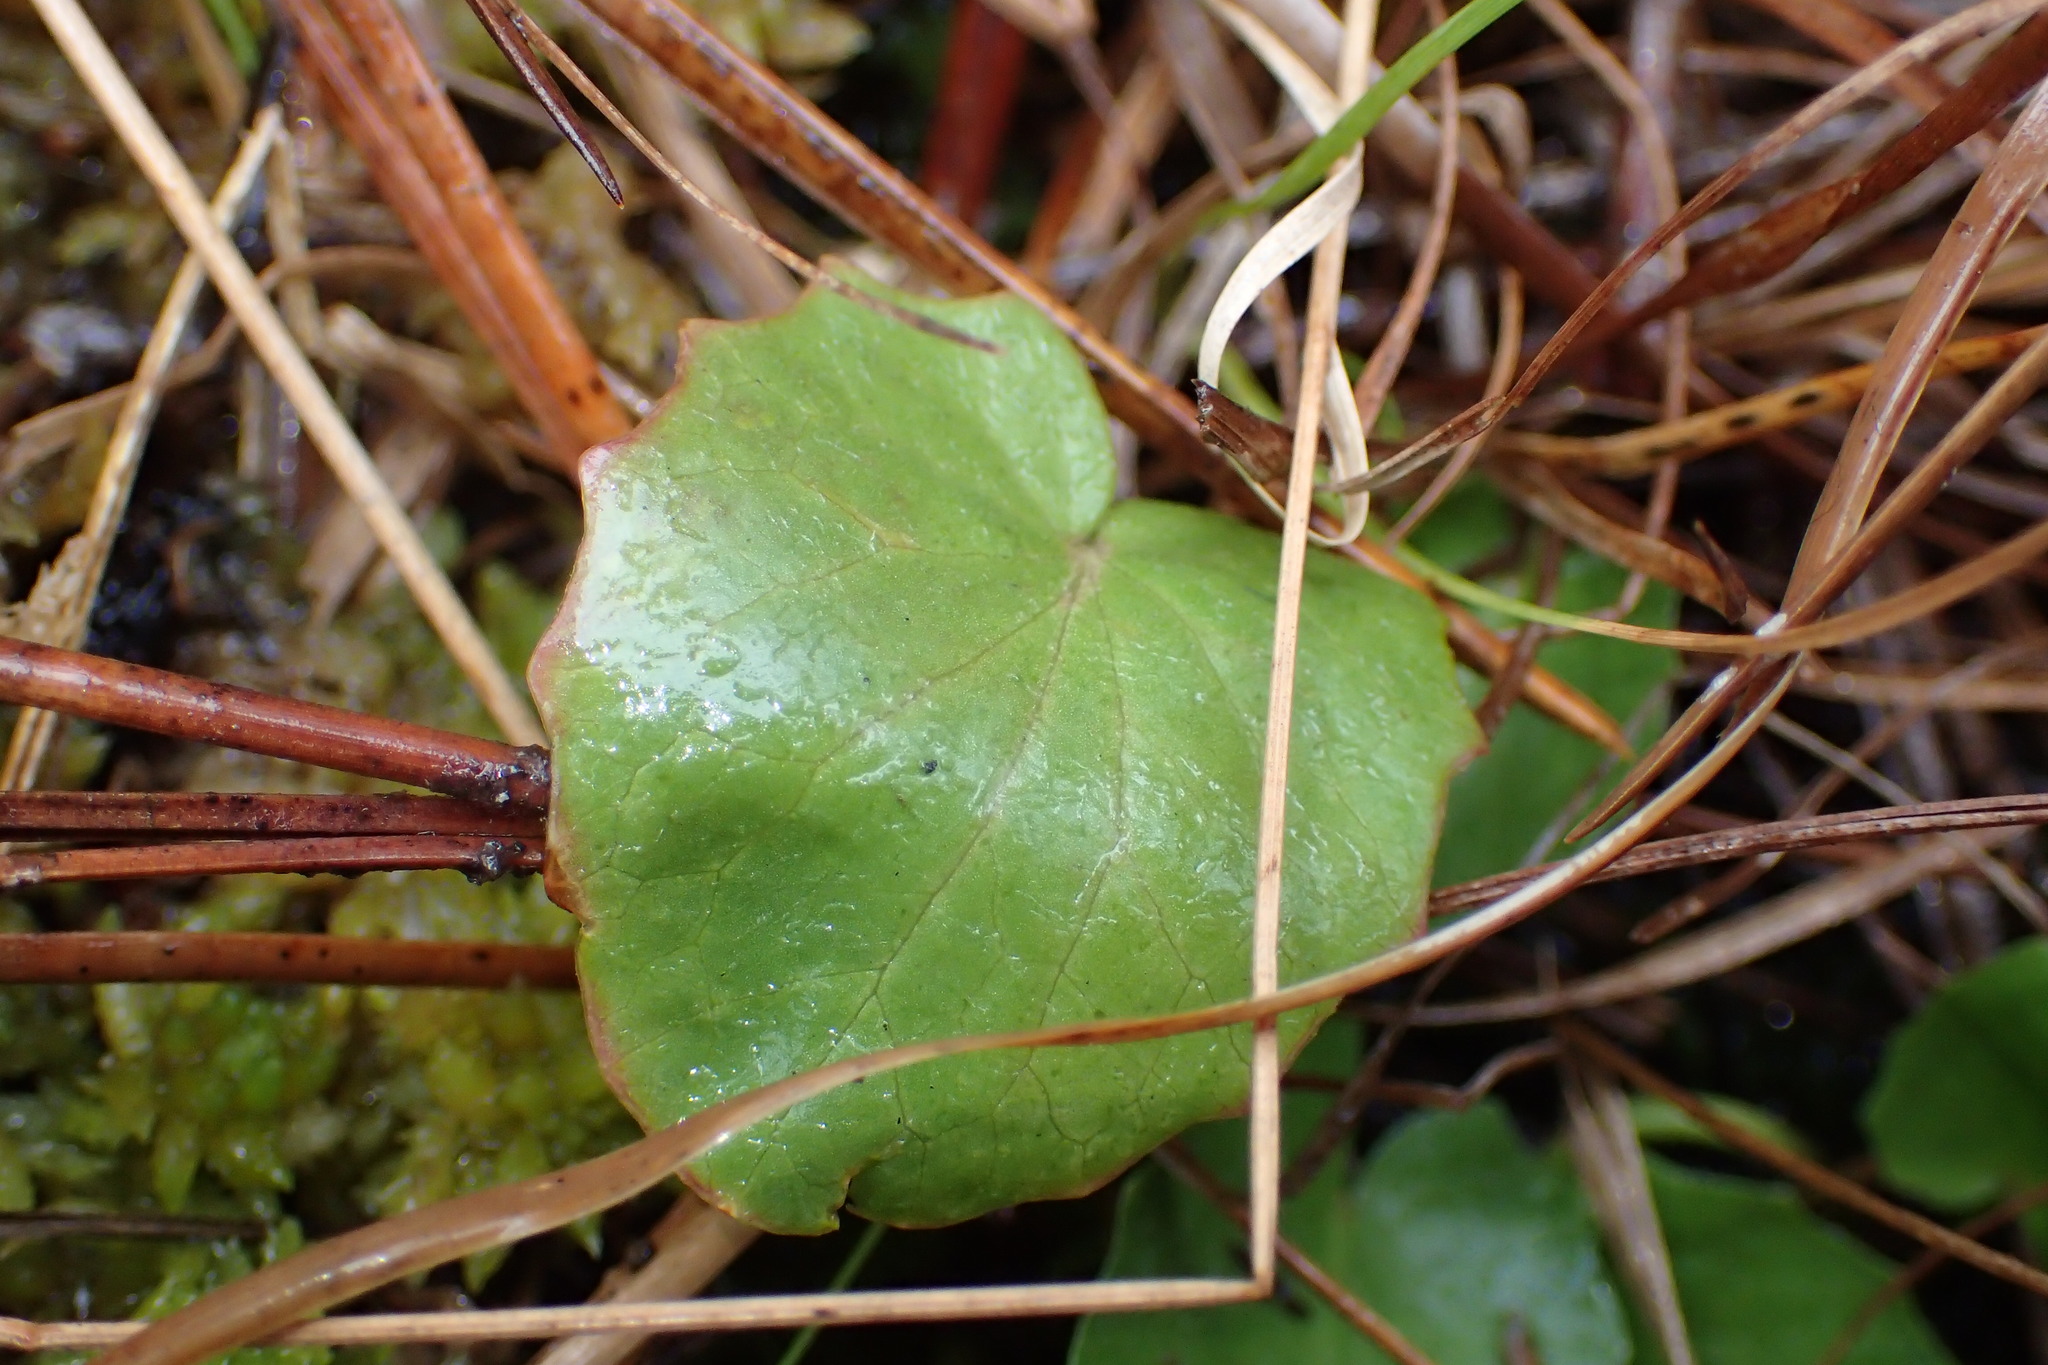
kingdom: Plantae
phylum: Tracheophyta
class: Magnoliopsida
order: Apiales
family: Apiaceae
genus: Centella
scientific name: Centella asiatica
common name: Spadeleaf
